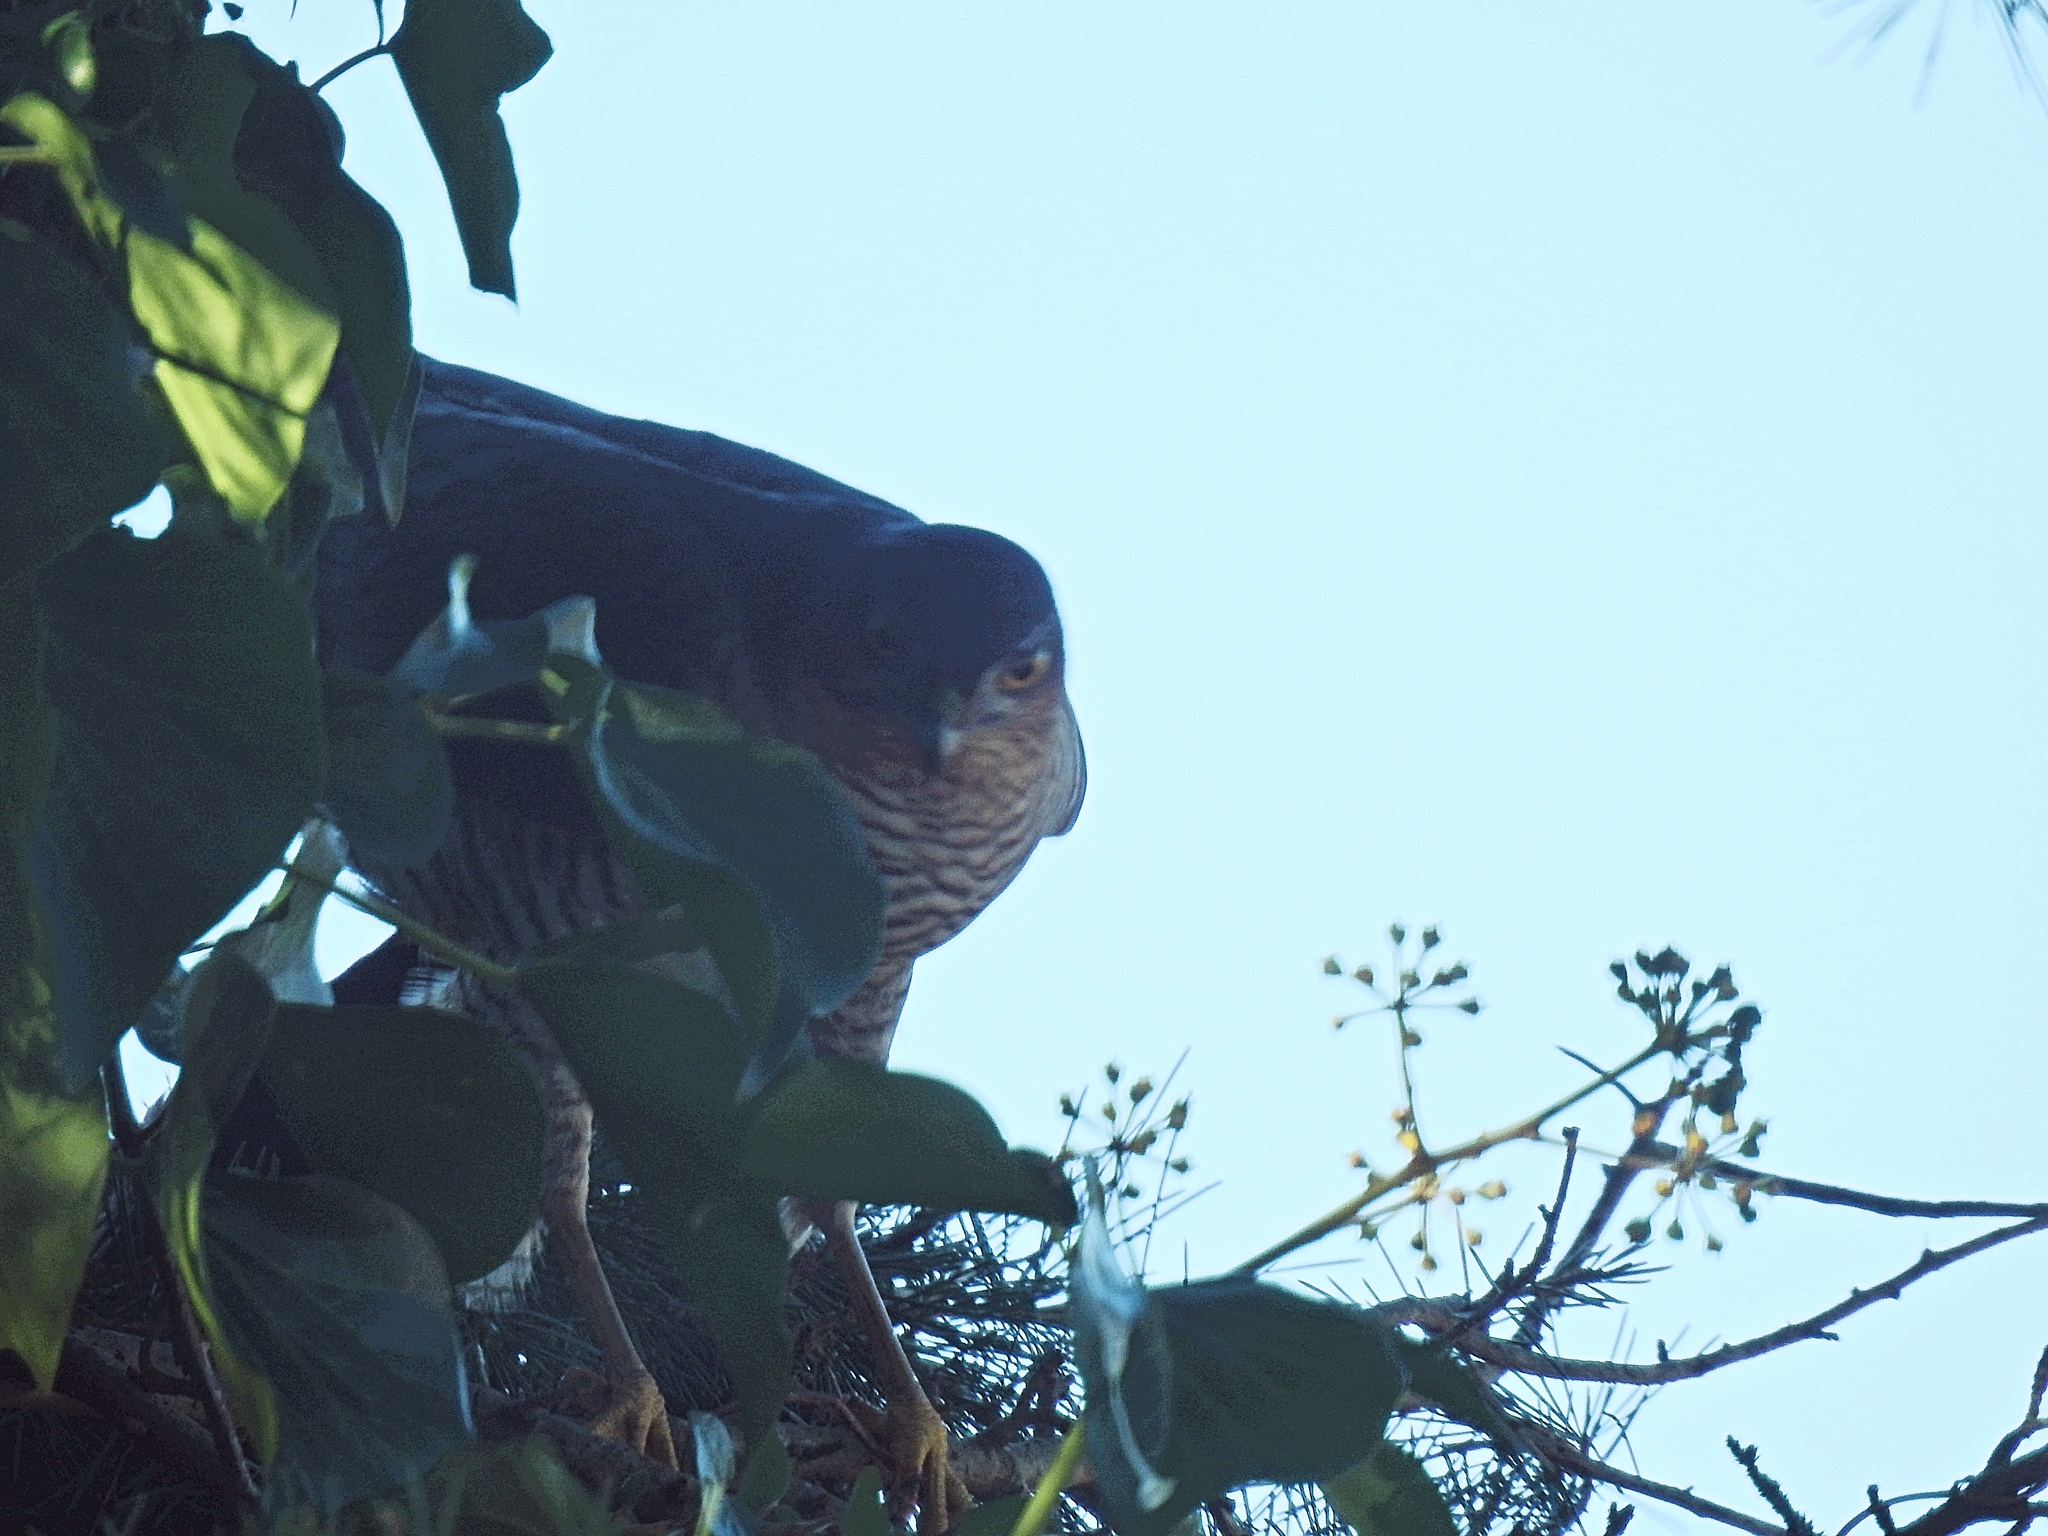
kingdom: Animalia
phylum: Chordata
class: Aves
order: Accipitriformes
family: Accipitridae
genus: Accipiter
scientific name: Accipiter nisus
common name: Eurasian sparrowhawk
